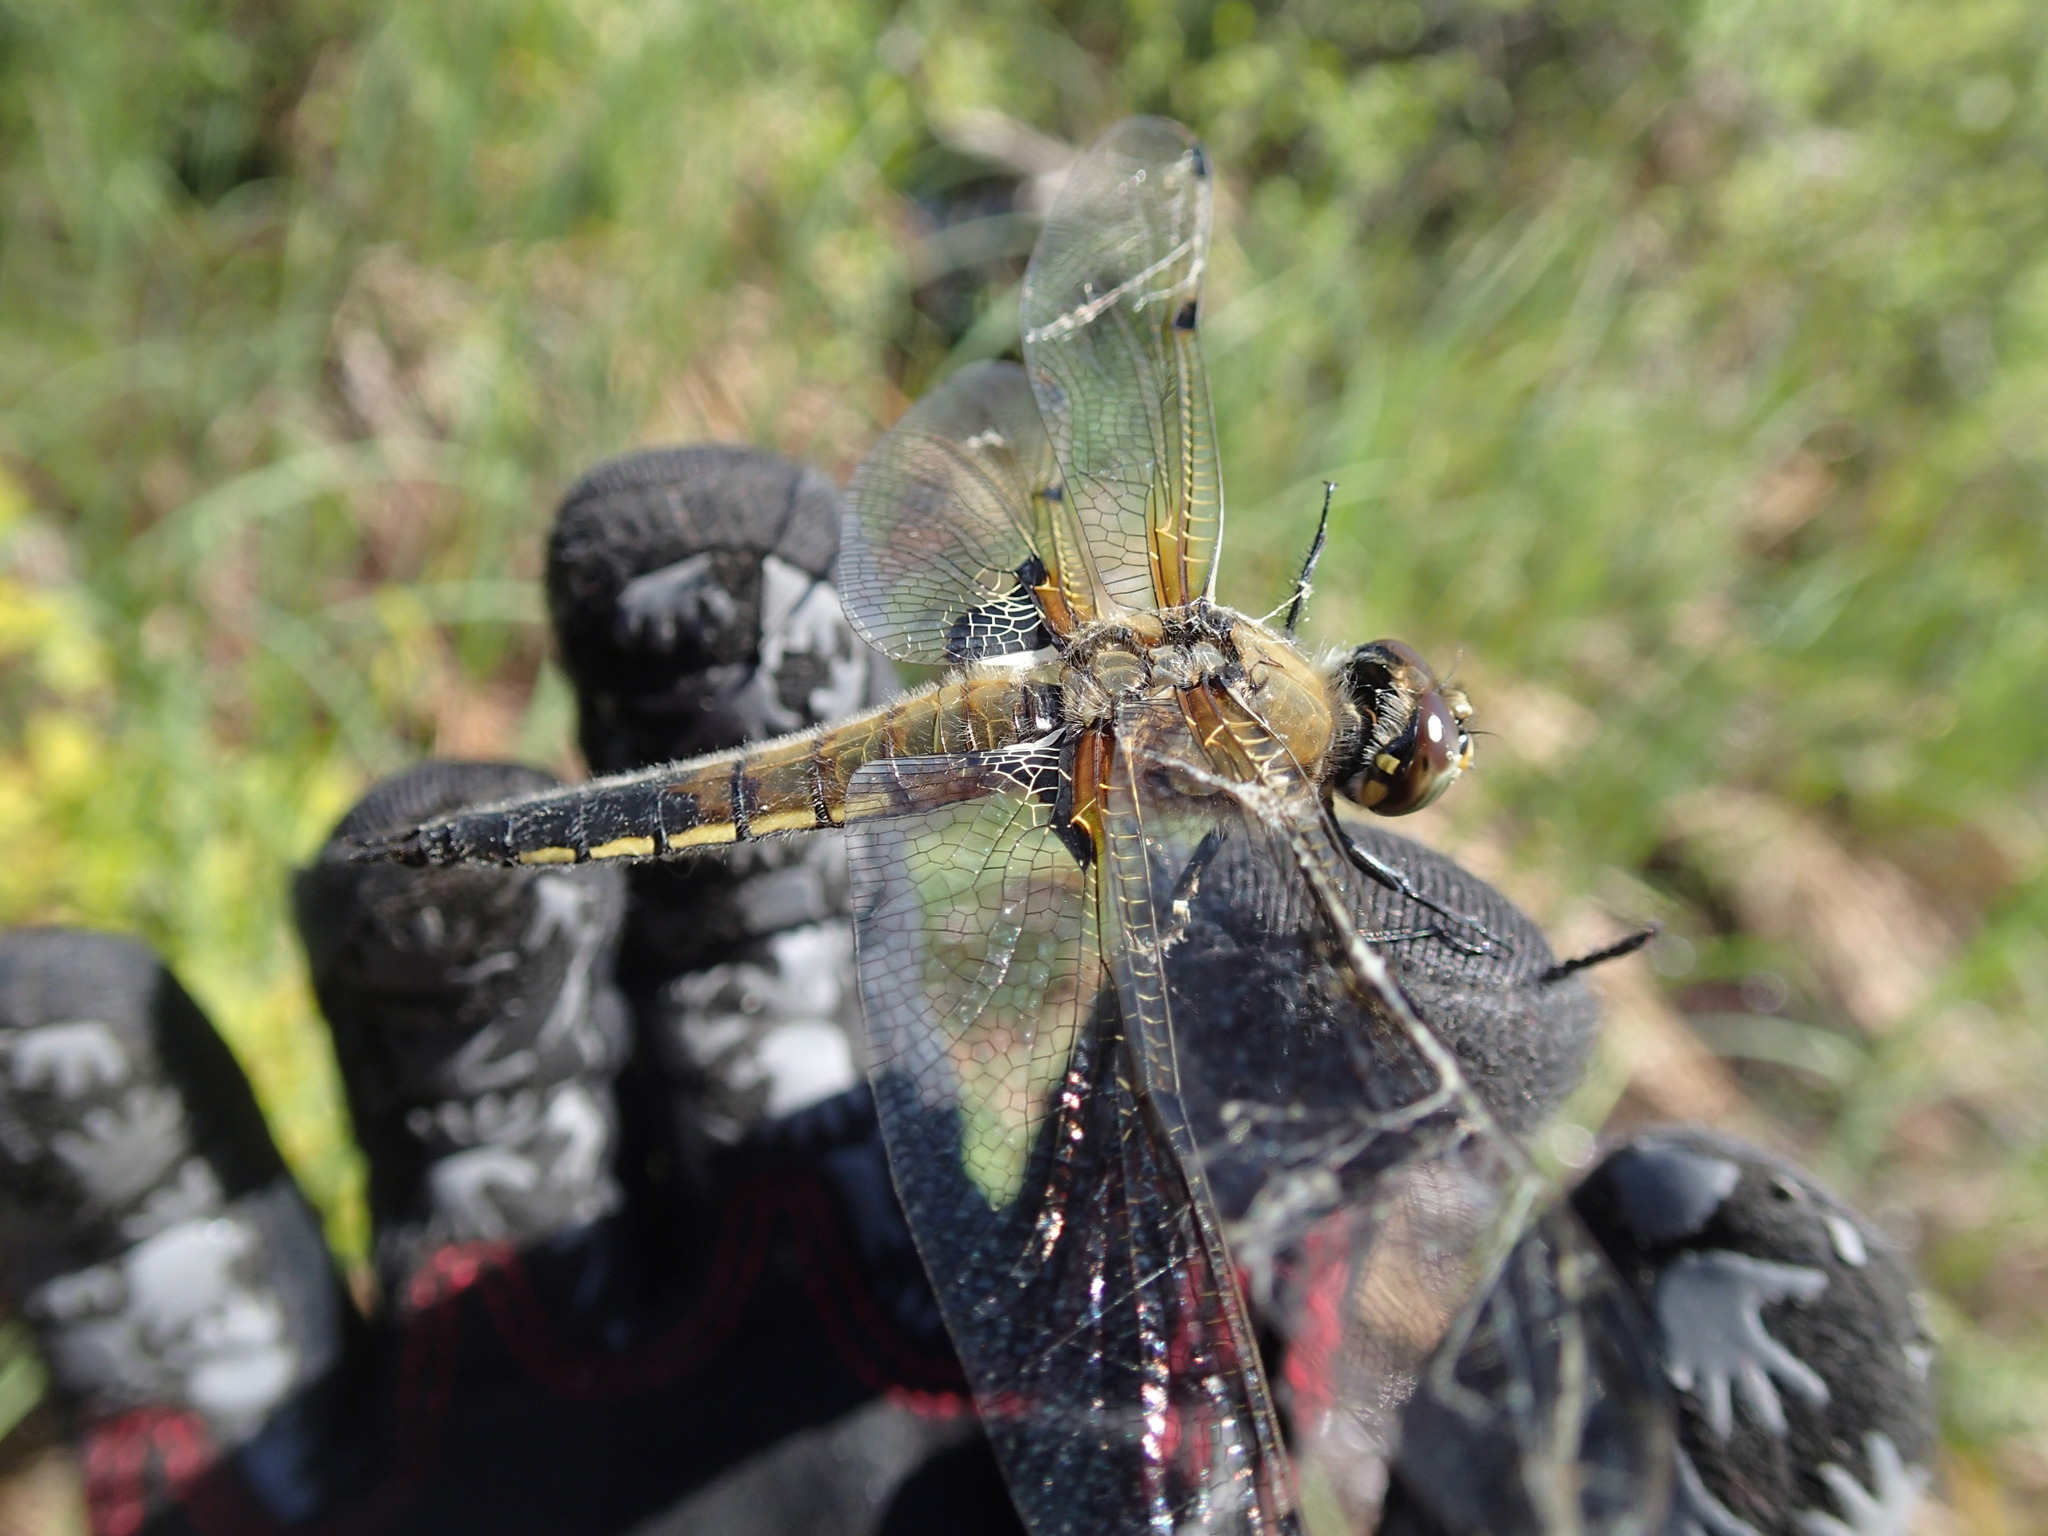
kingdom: Animalia
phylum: Arthropoda
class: Insecta
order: Odonata
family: Libellulidae
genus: Libellula
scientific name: Libellula quadrimaculata
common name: Four-spotted chaser
